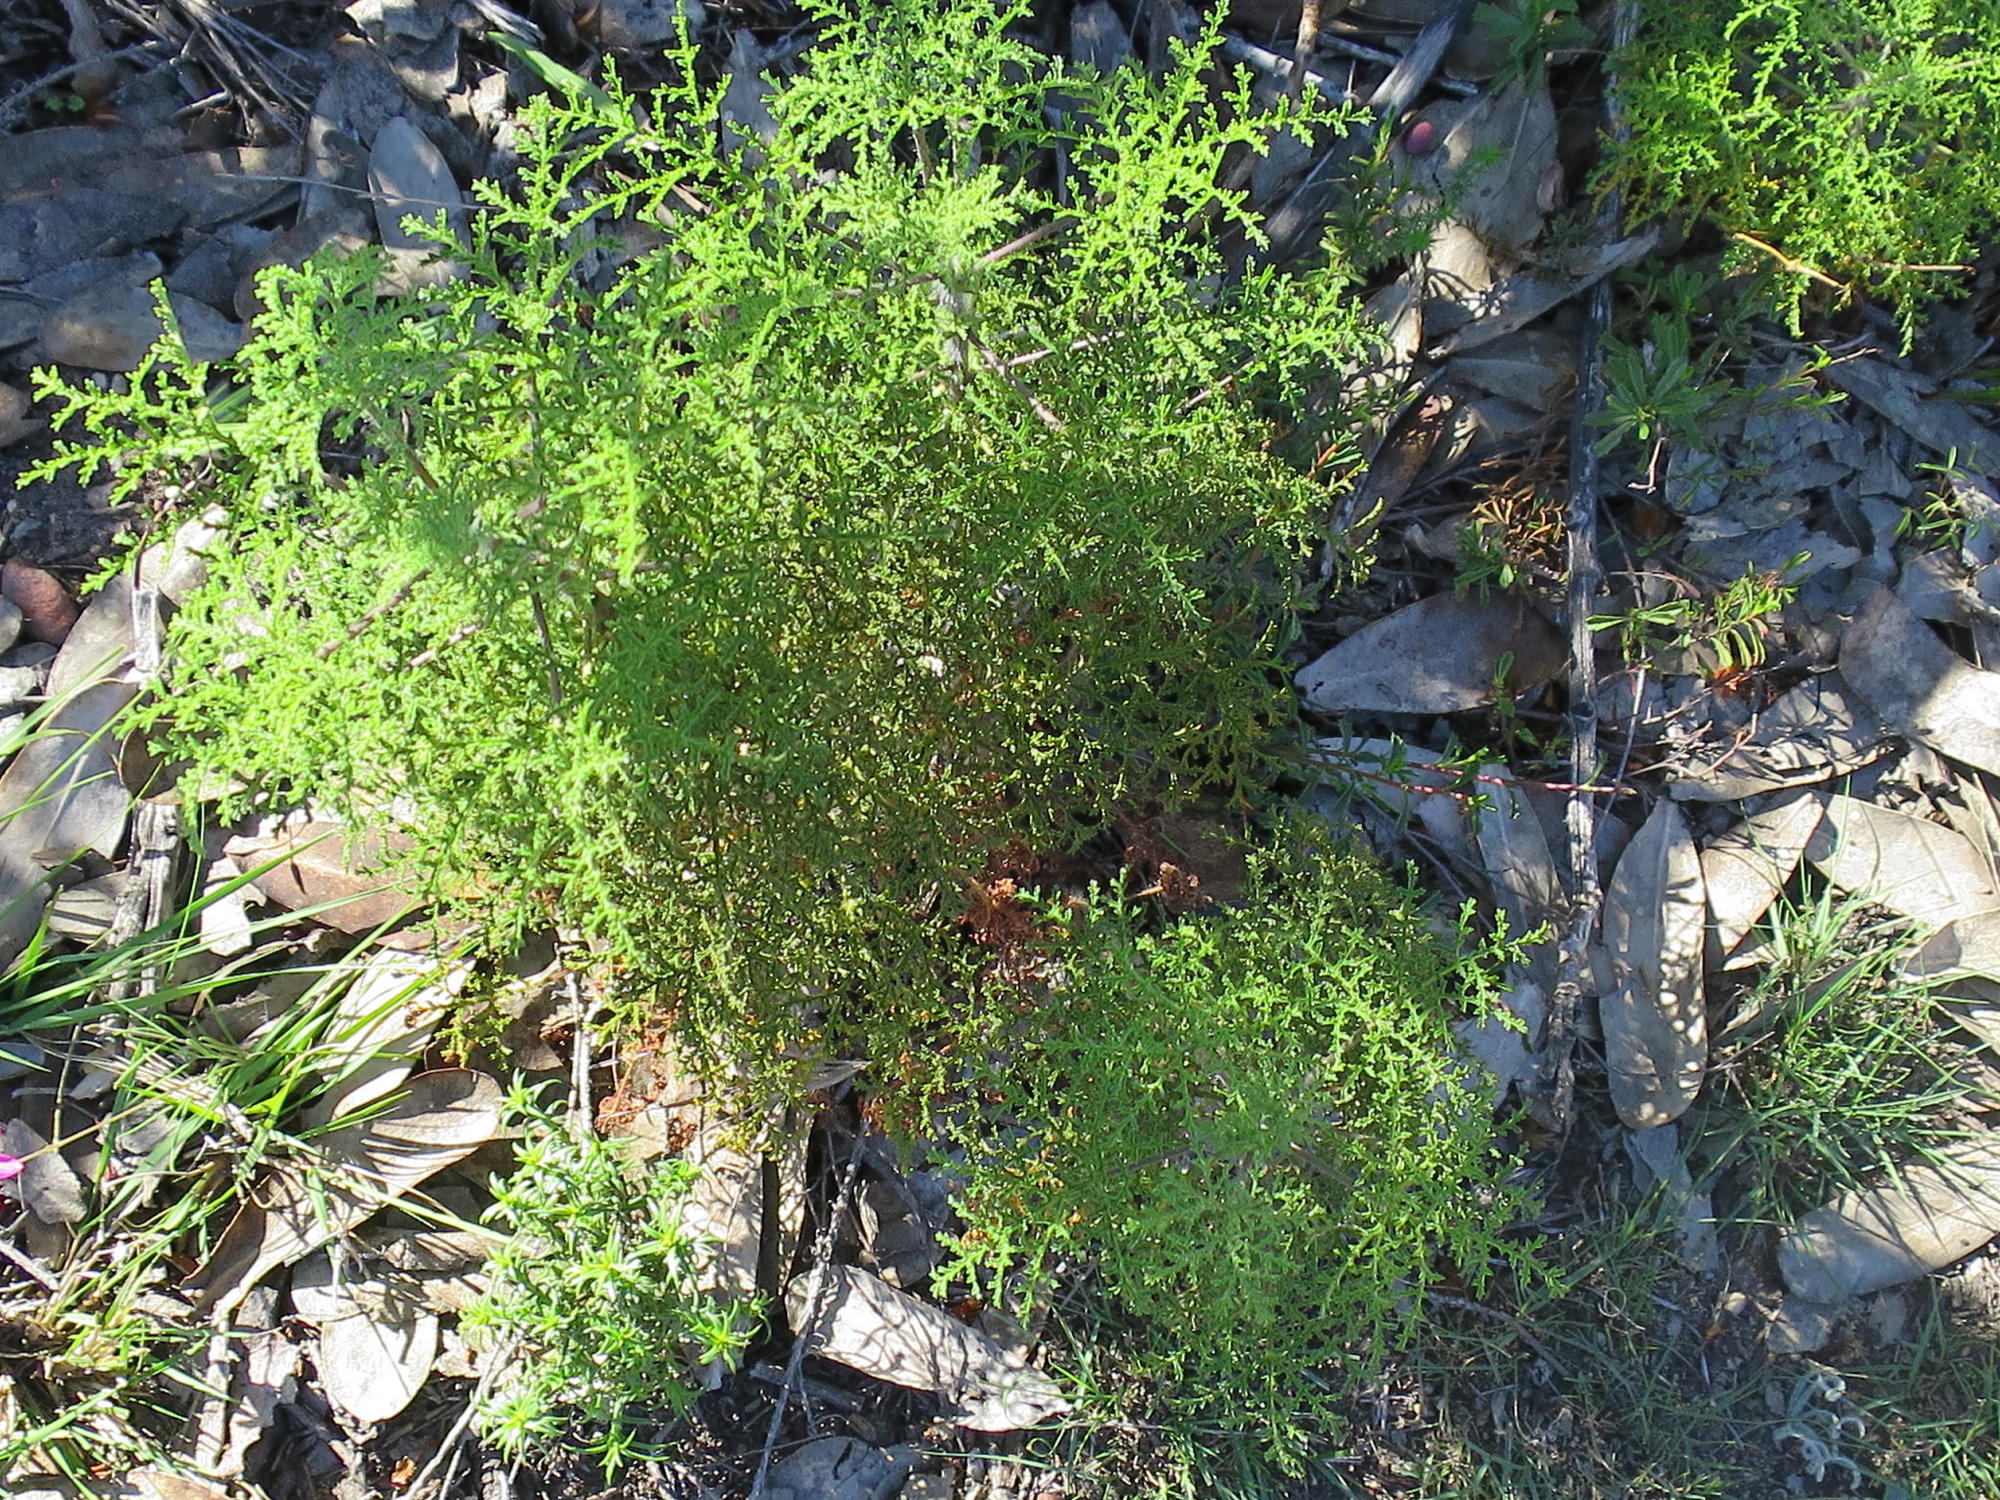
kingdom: Plantae
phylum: Tracheophyta
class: Magnoliopsida
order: Geraniales
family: Geraniaceae
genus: Pelargonium
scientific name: Pelargonium denticulatum
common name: Pine geranium
